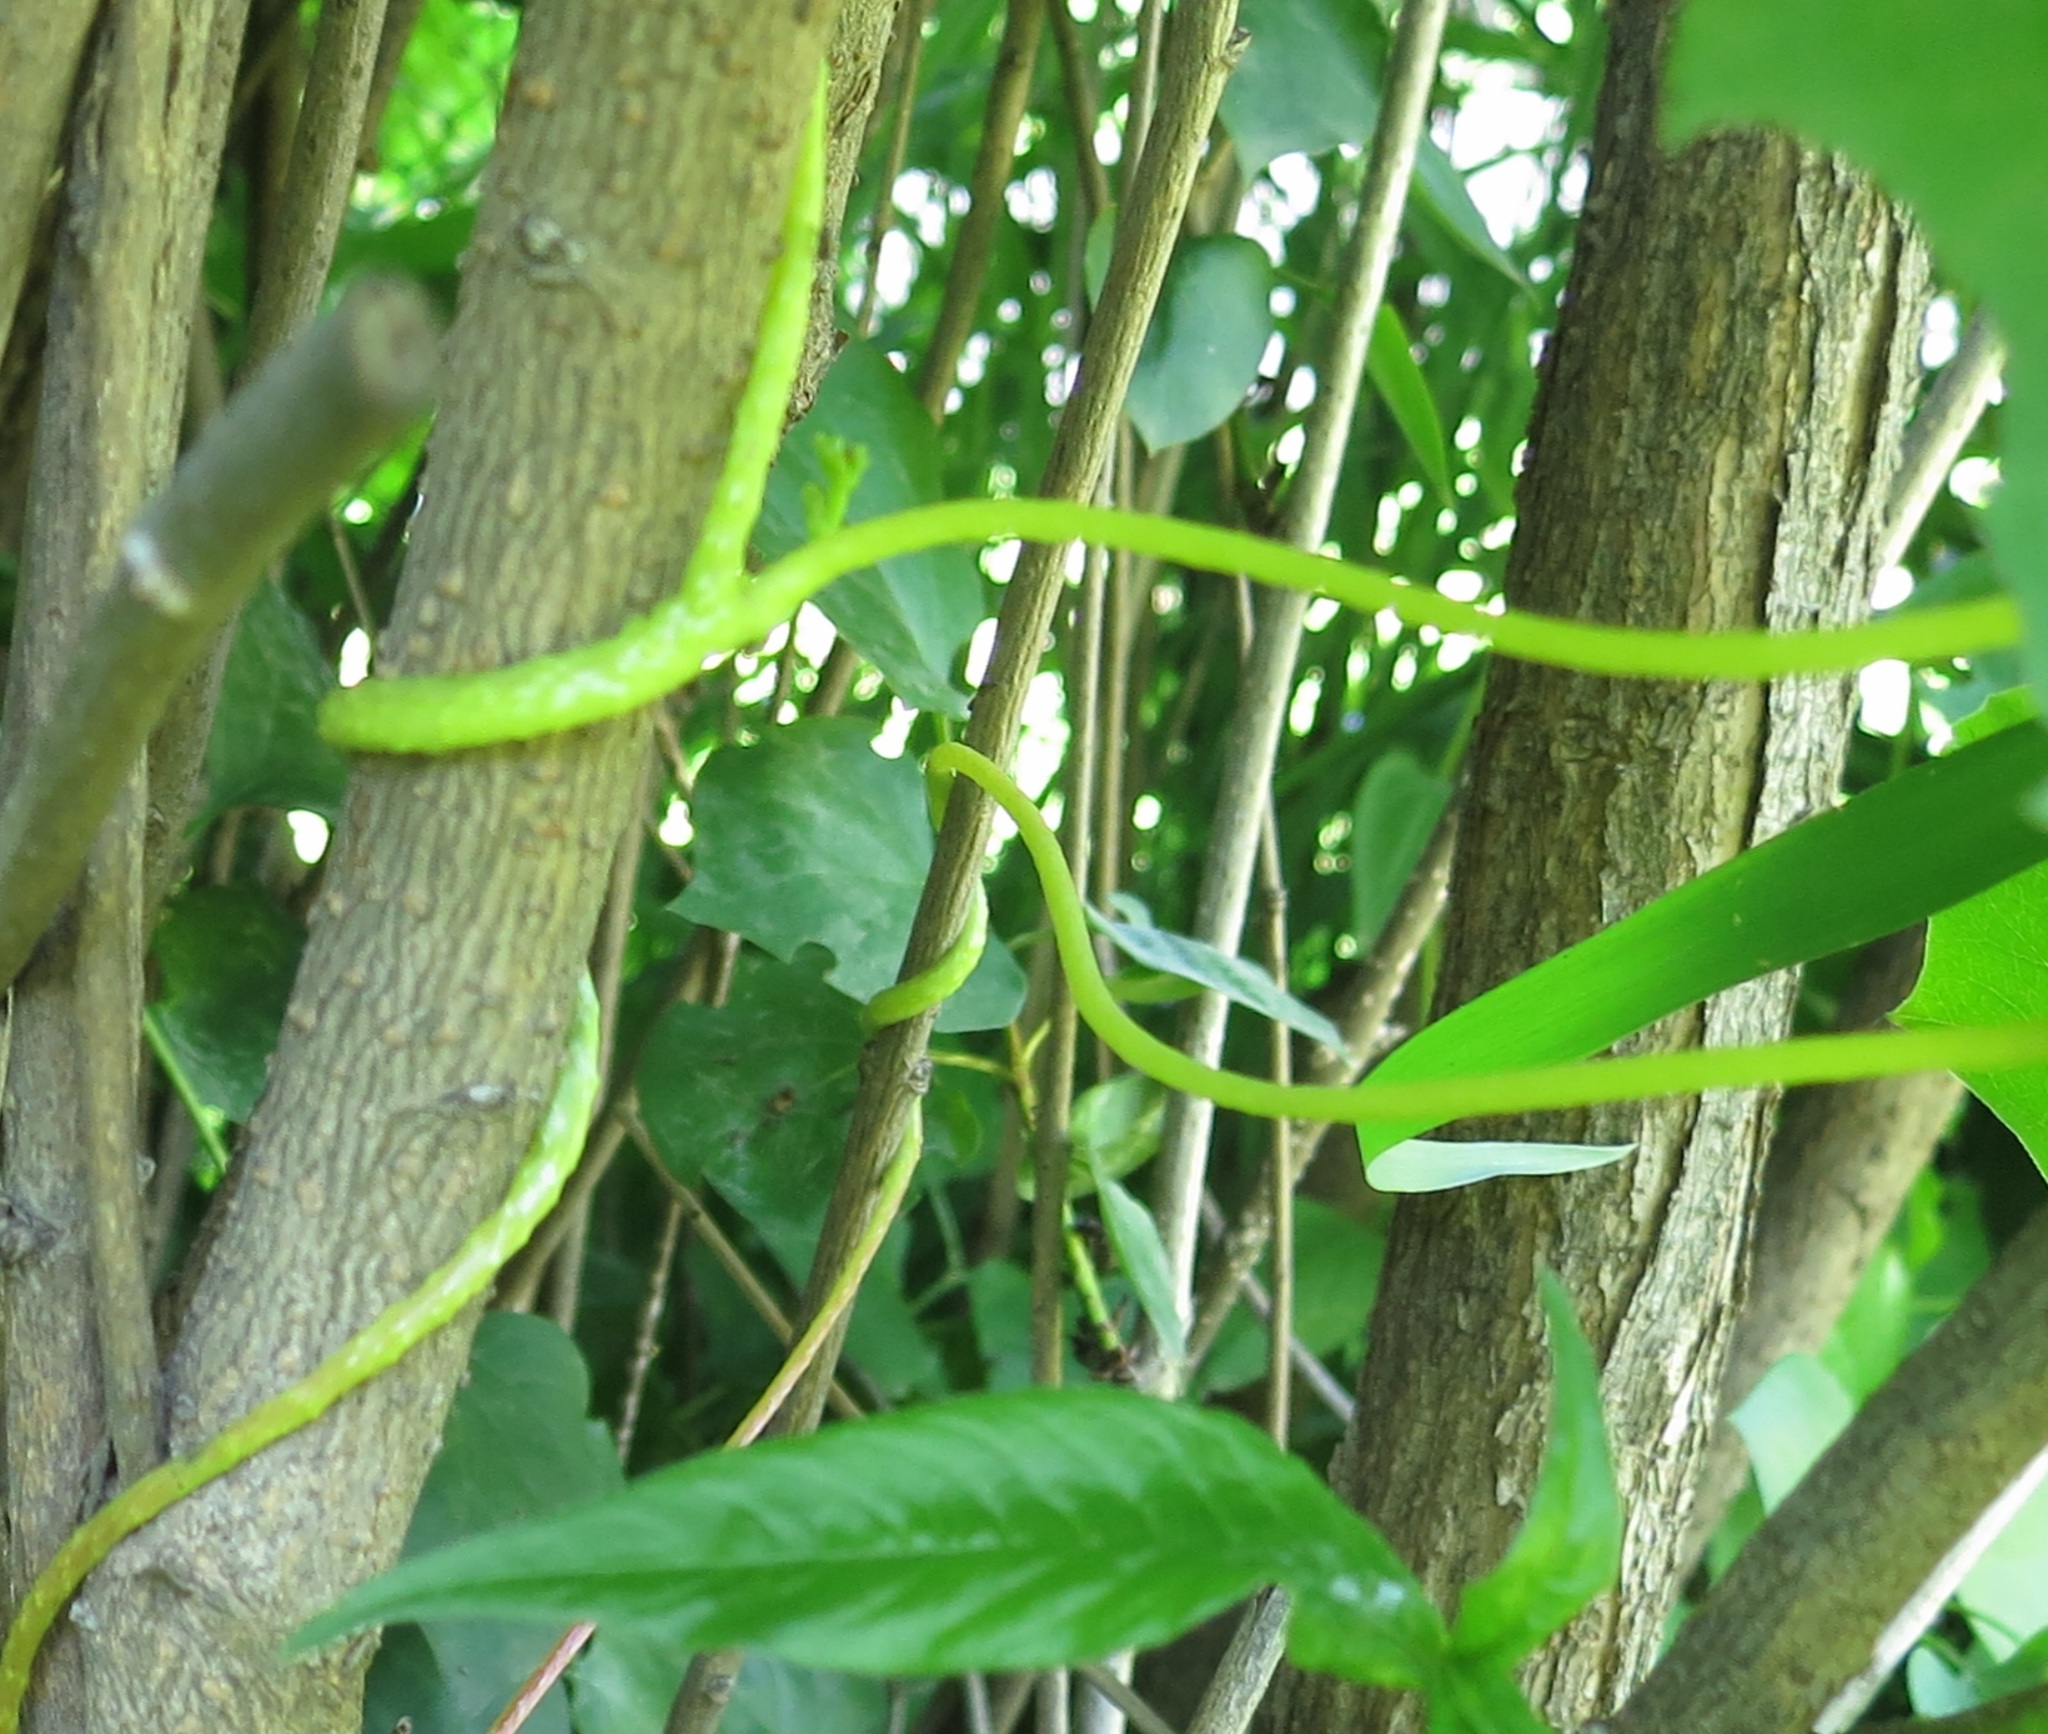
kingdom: Plantae
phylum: Tracheophyta
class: Magnoliopsida
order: Solanales
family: Convolvulaceae
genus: Cuscuta
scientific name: Cuscuta japonica
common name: Japanese dodder
